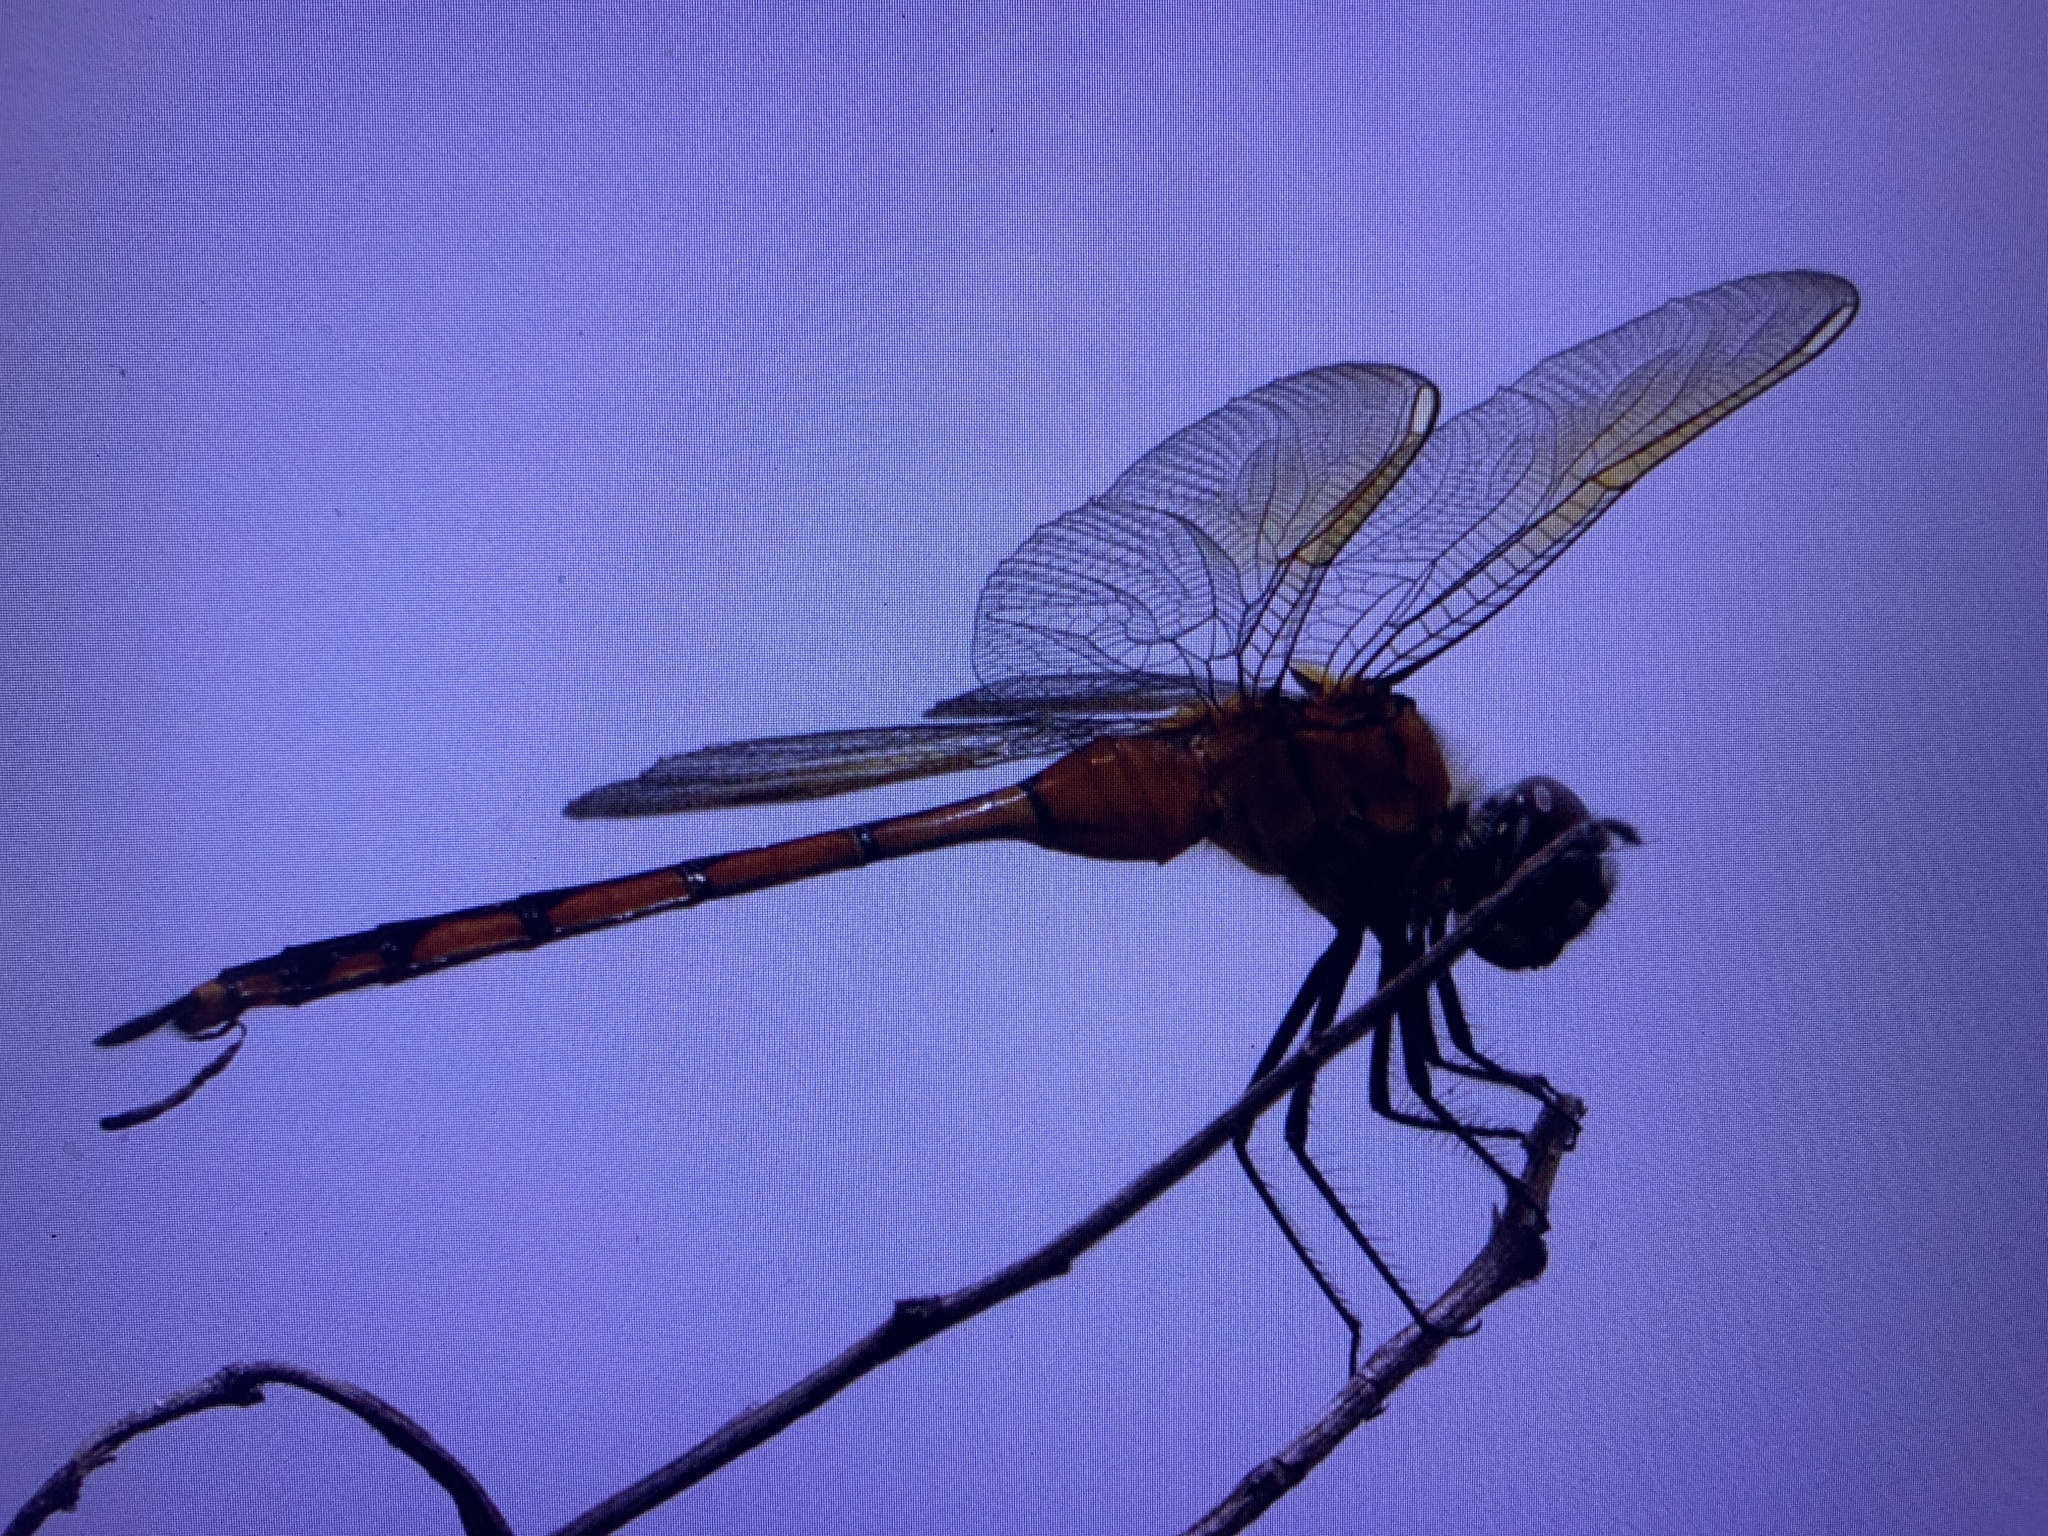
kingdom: Animalia
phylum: Arthropoda
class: Insecta
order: Odonata
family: Libellulidae
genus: Brachymesia
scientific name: Brachymesia gravida
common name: Four-spotted pennant
